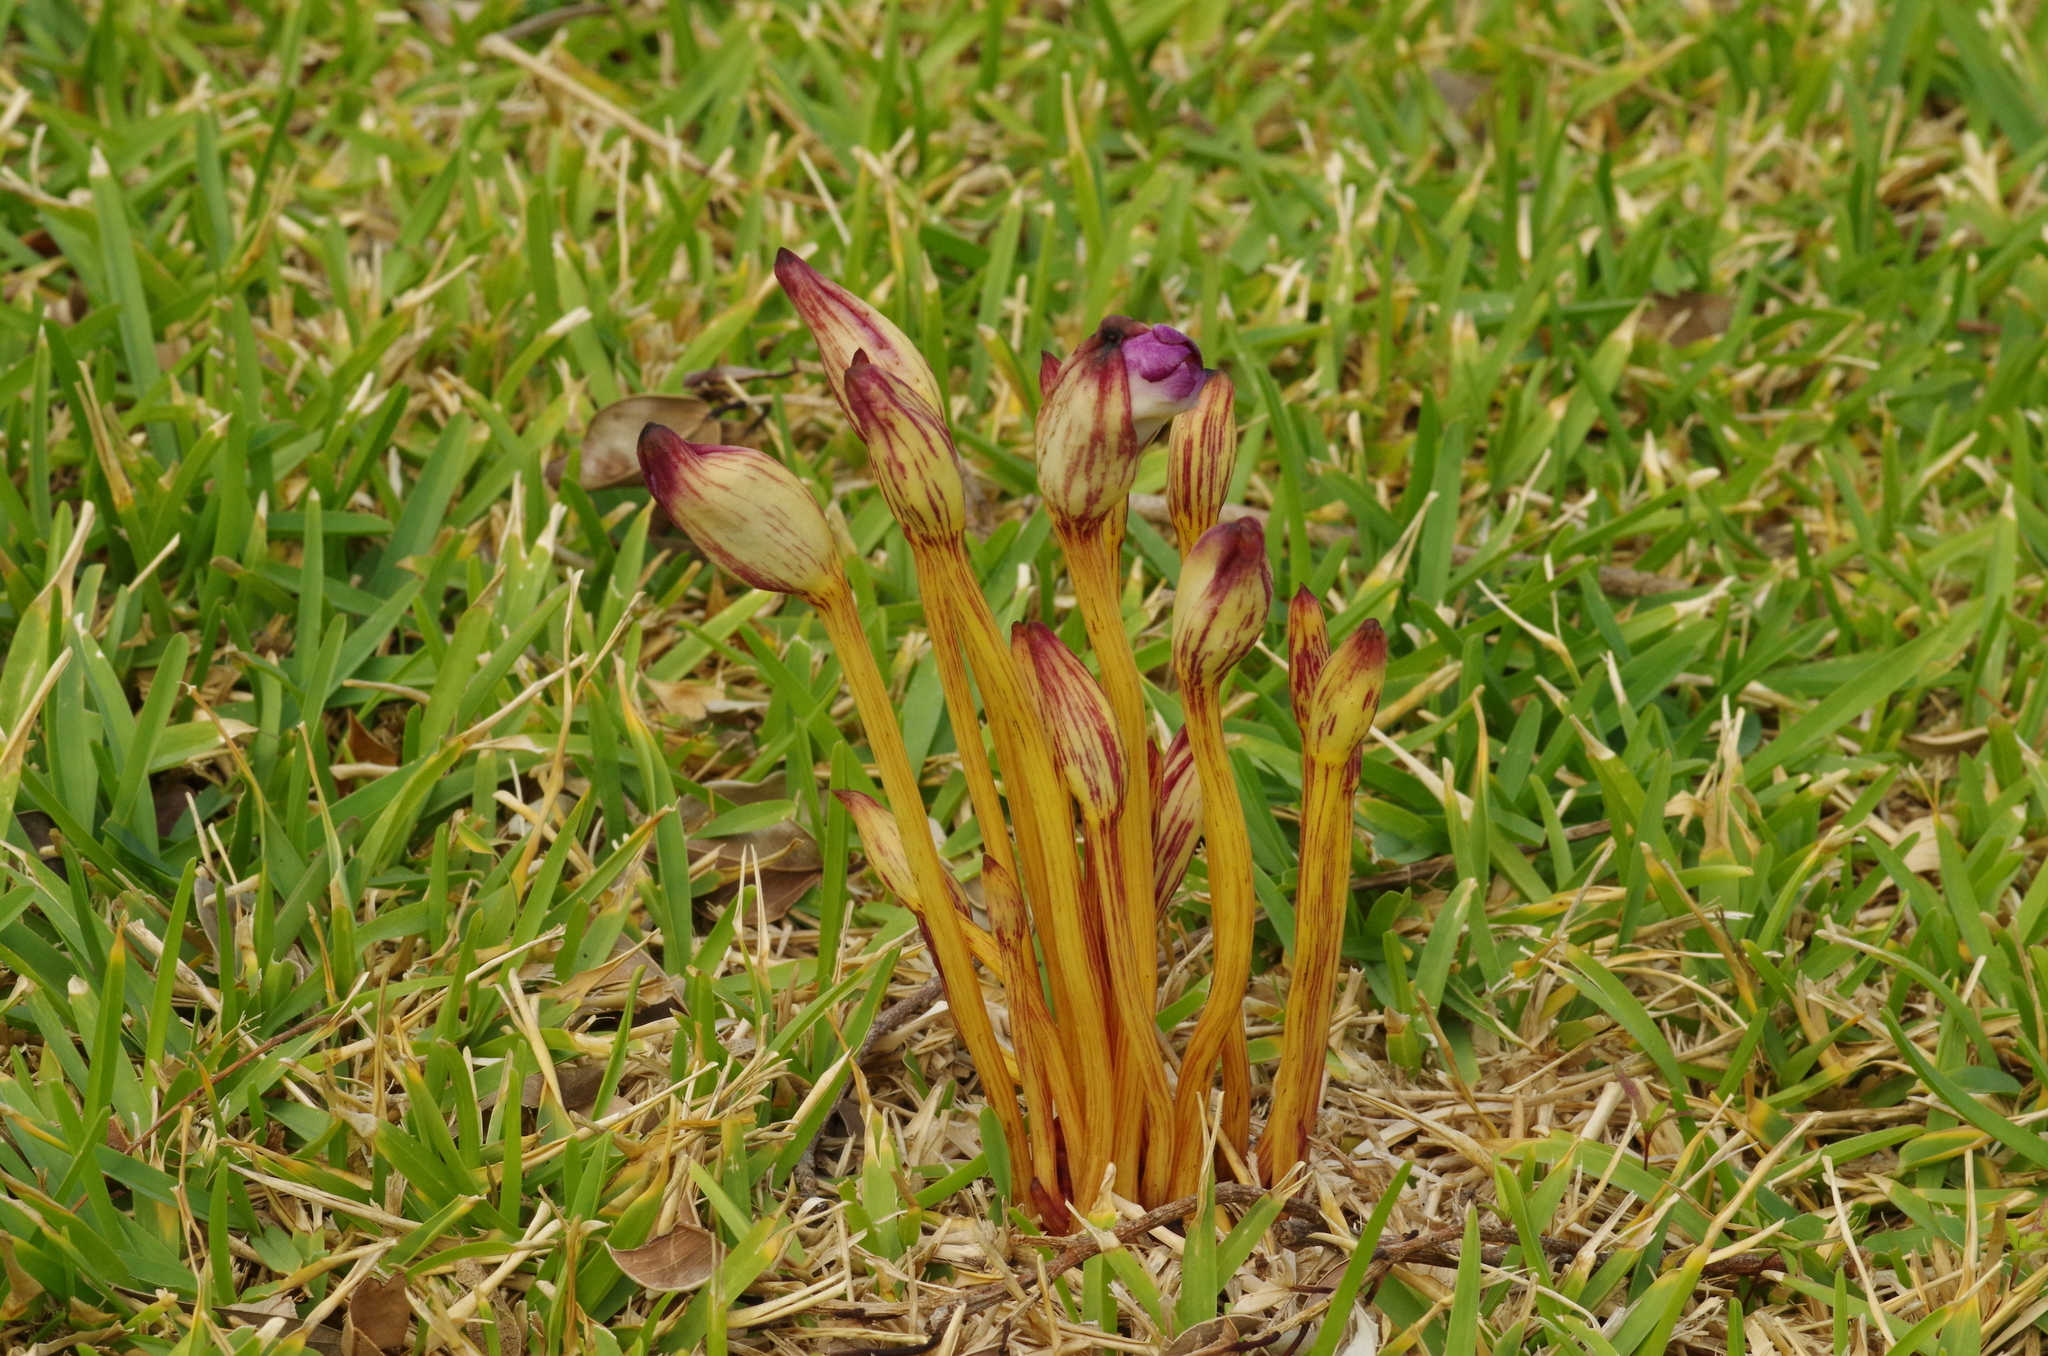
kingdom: Plantae
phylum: Tracheophyta
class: Magnoliopsida
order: Lamiales
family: Orobanchaceae
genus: Aeginetia
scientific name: Aeginetia indica
